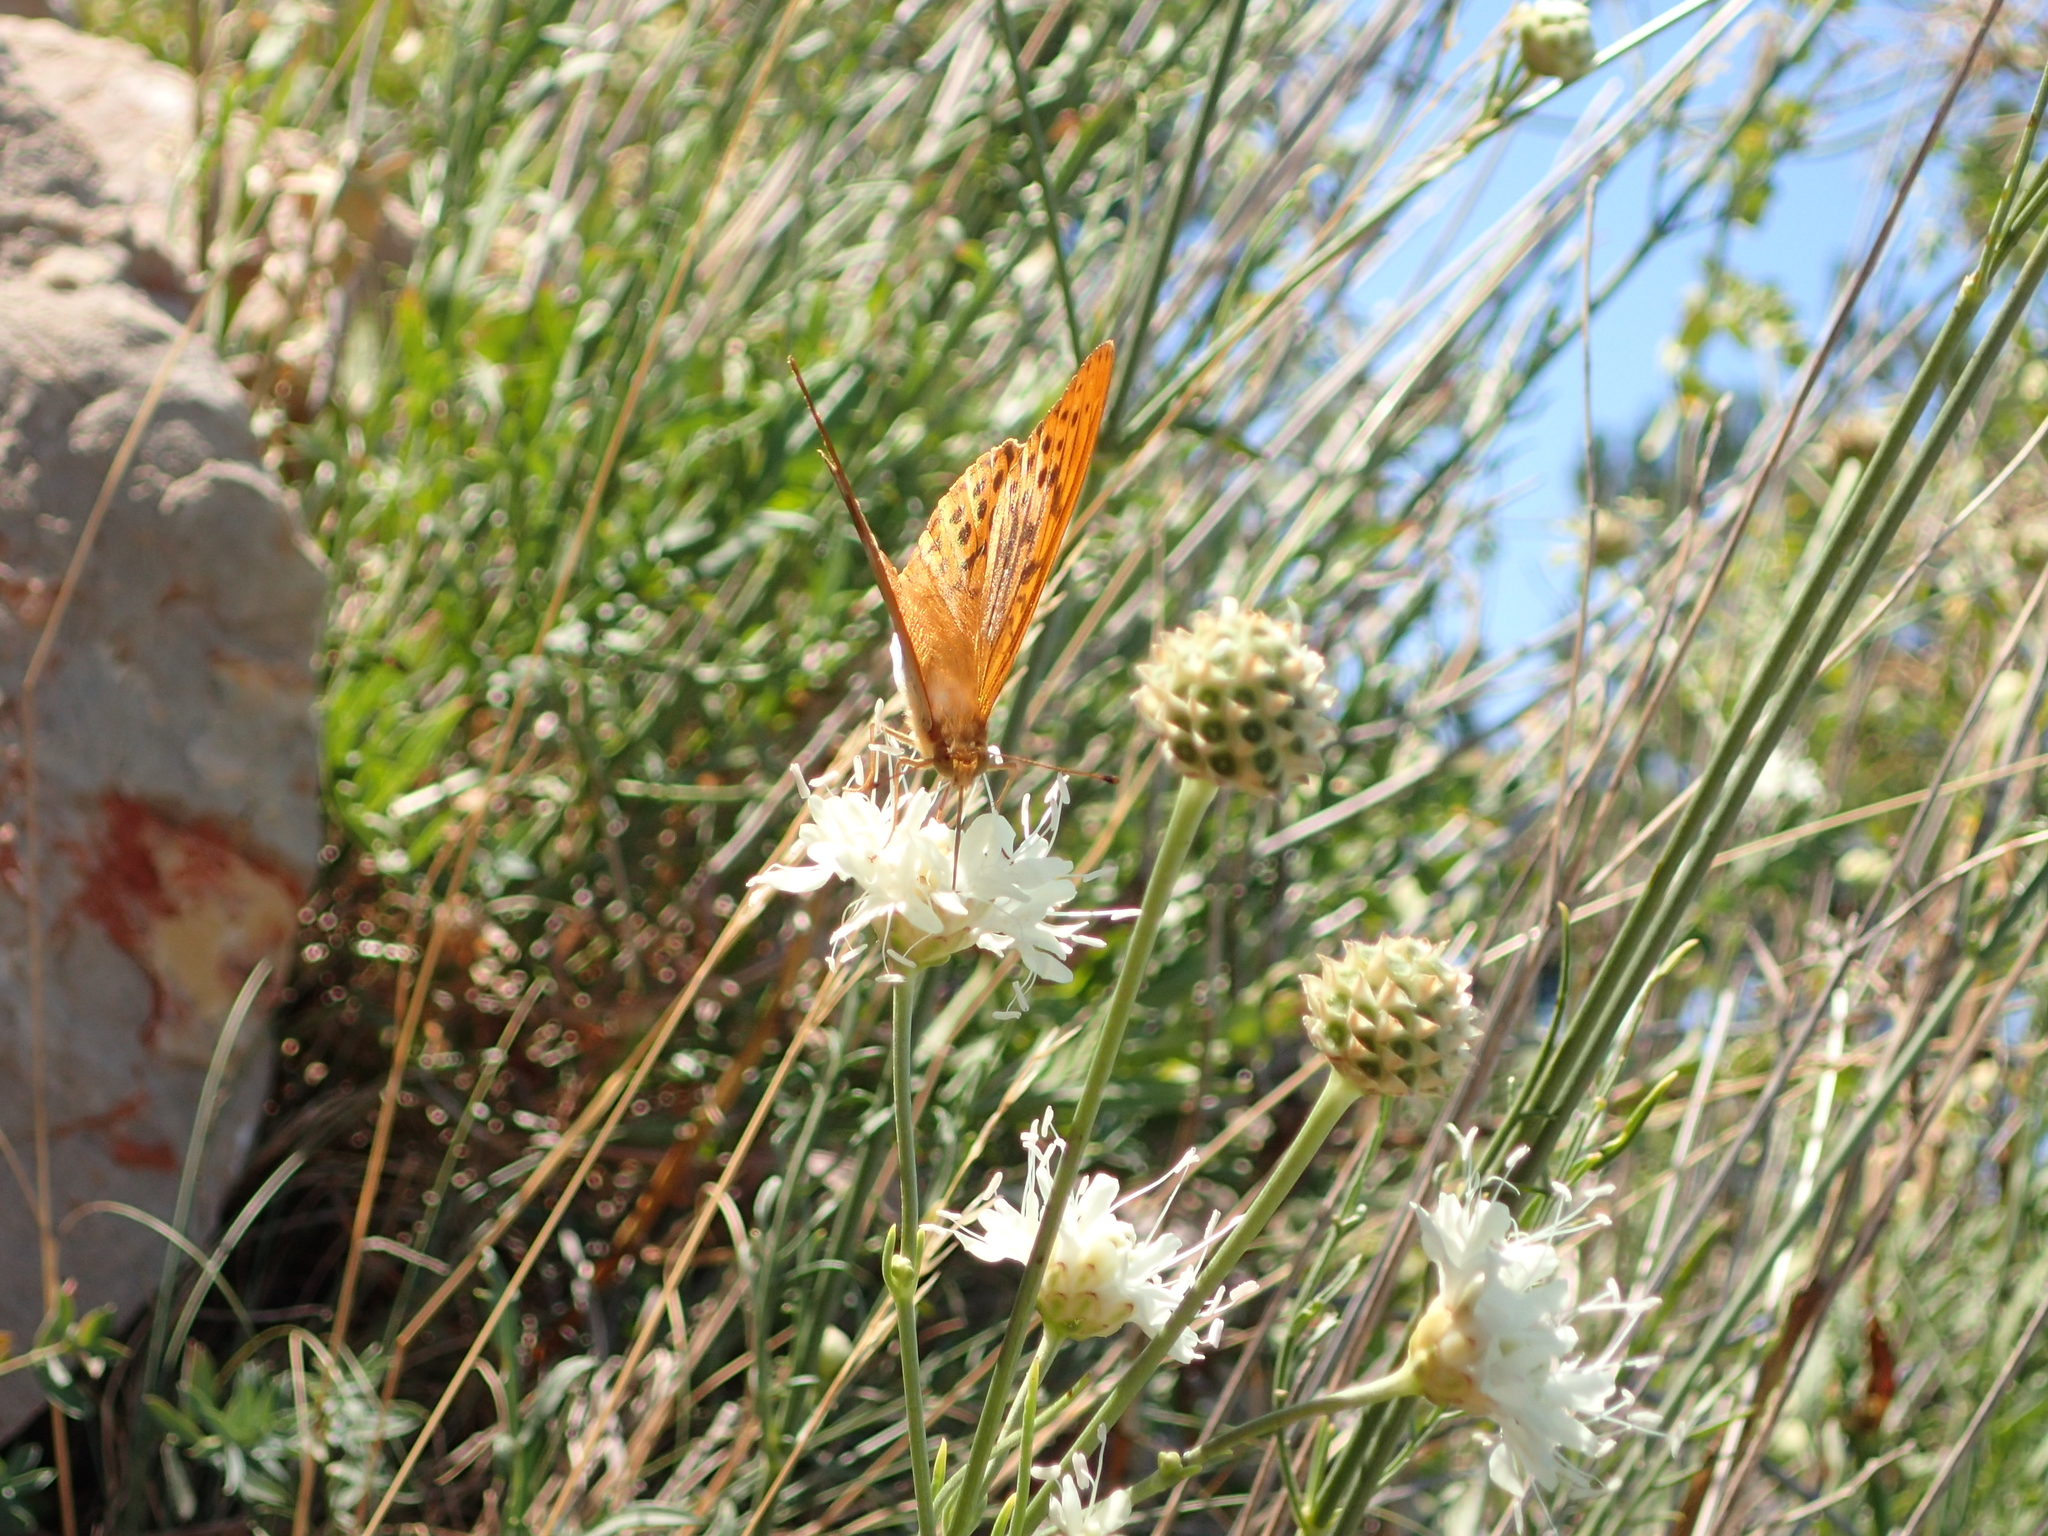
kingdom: Animalia
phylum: Arthropoda
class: Insecta
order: Lepidoptera
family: Nymphalidae
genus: Argynnis
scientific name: Argynnis paphia
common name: Silver-washed fritillary
